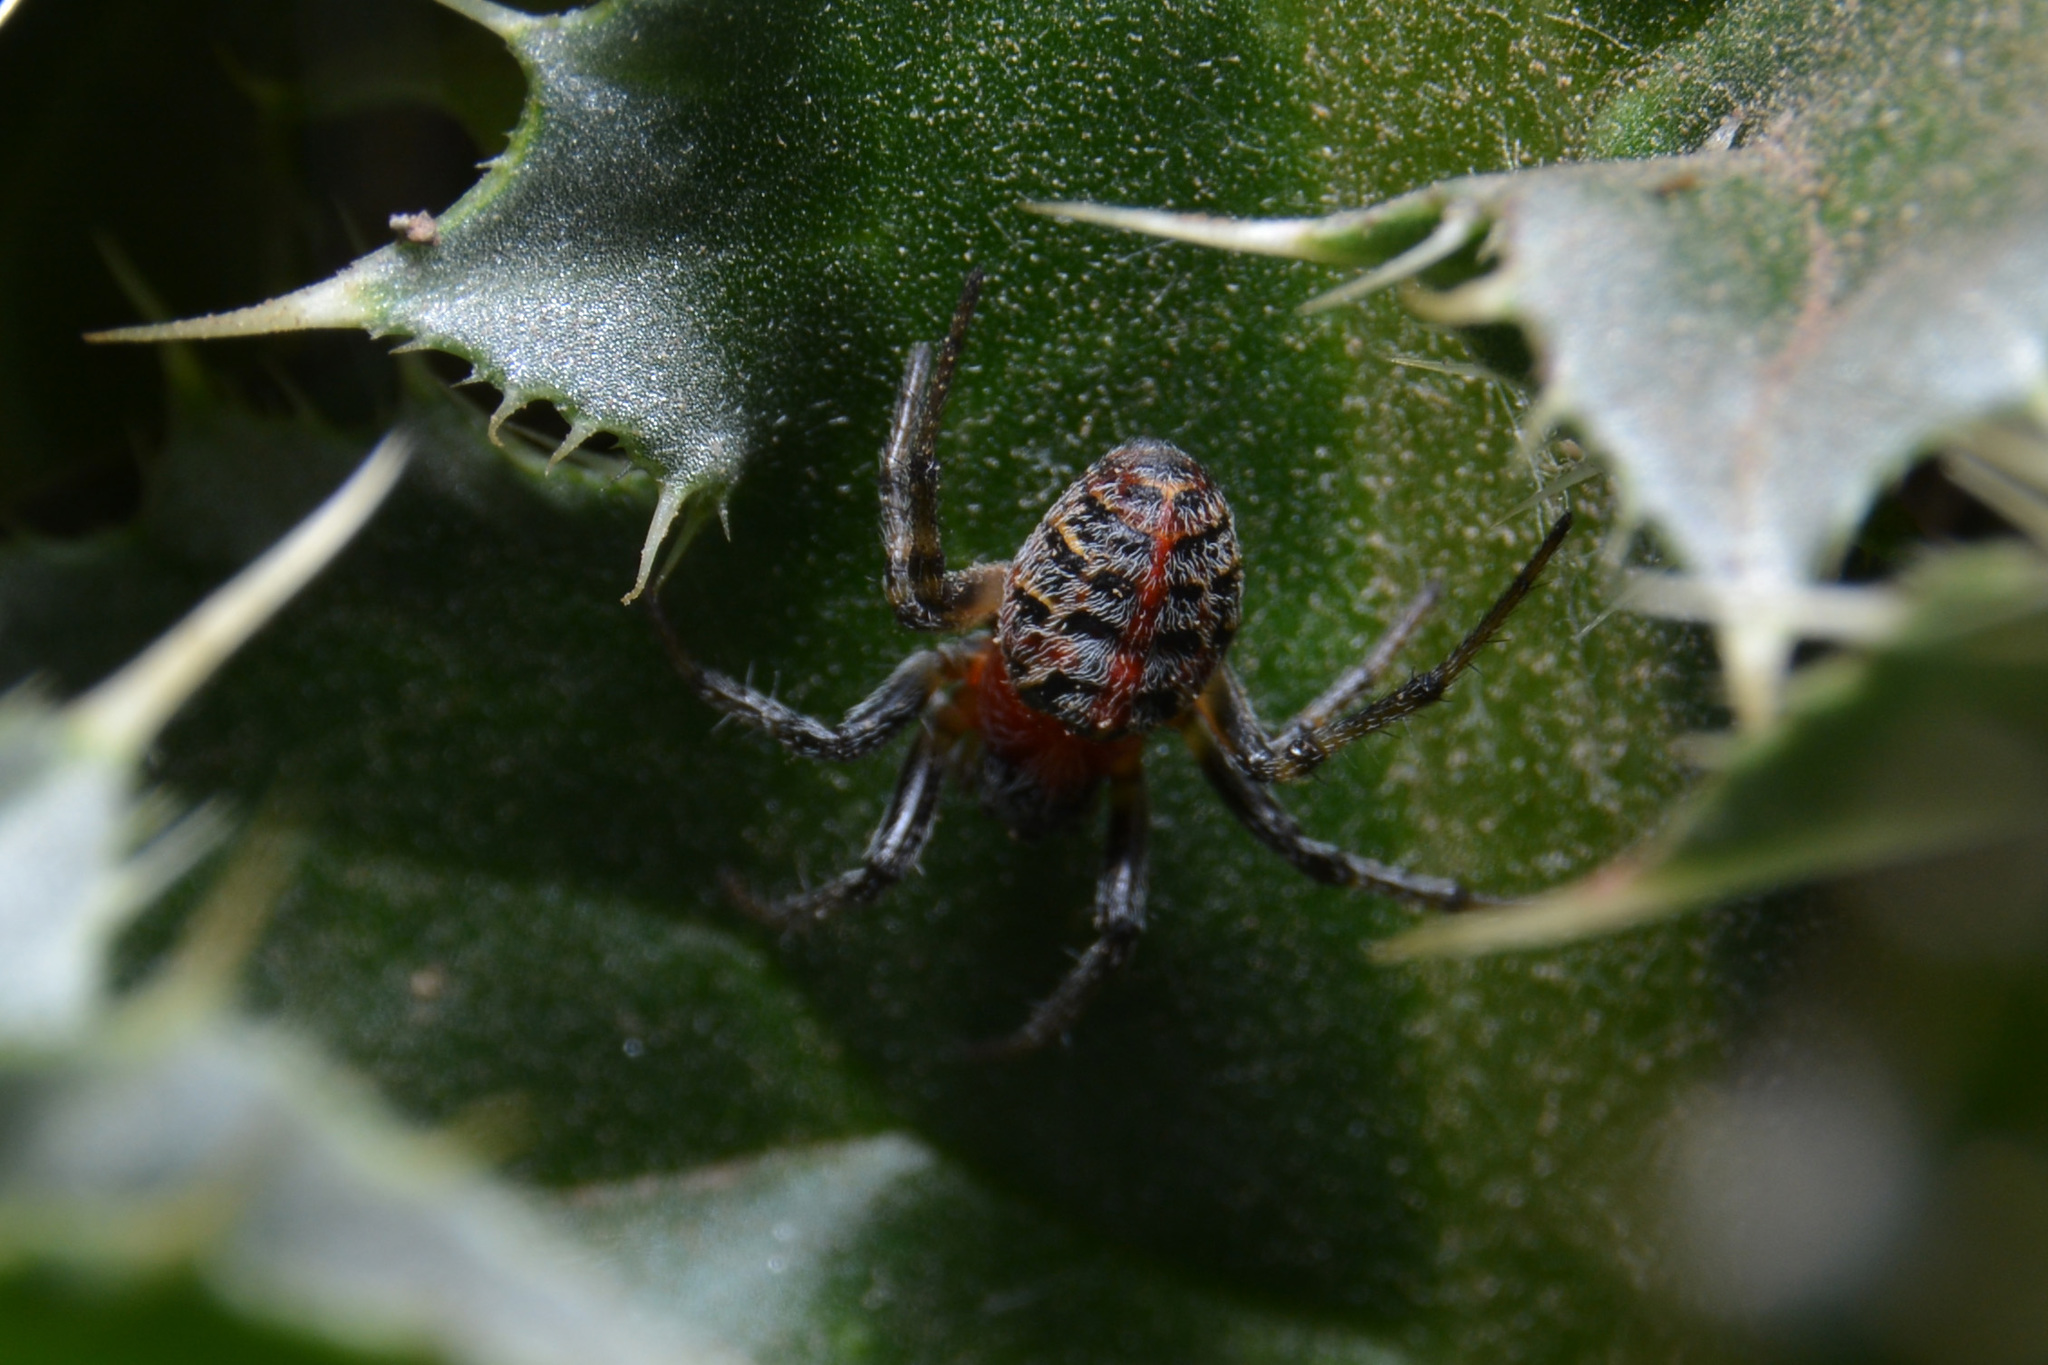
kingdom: Animalia
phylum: Arthropoda
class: Arachnida
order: Araneae
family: Araneidae
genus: Alpaida
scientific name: Alpaida versicolor
